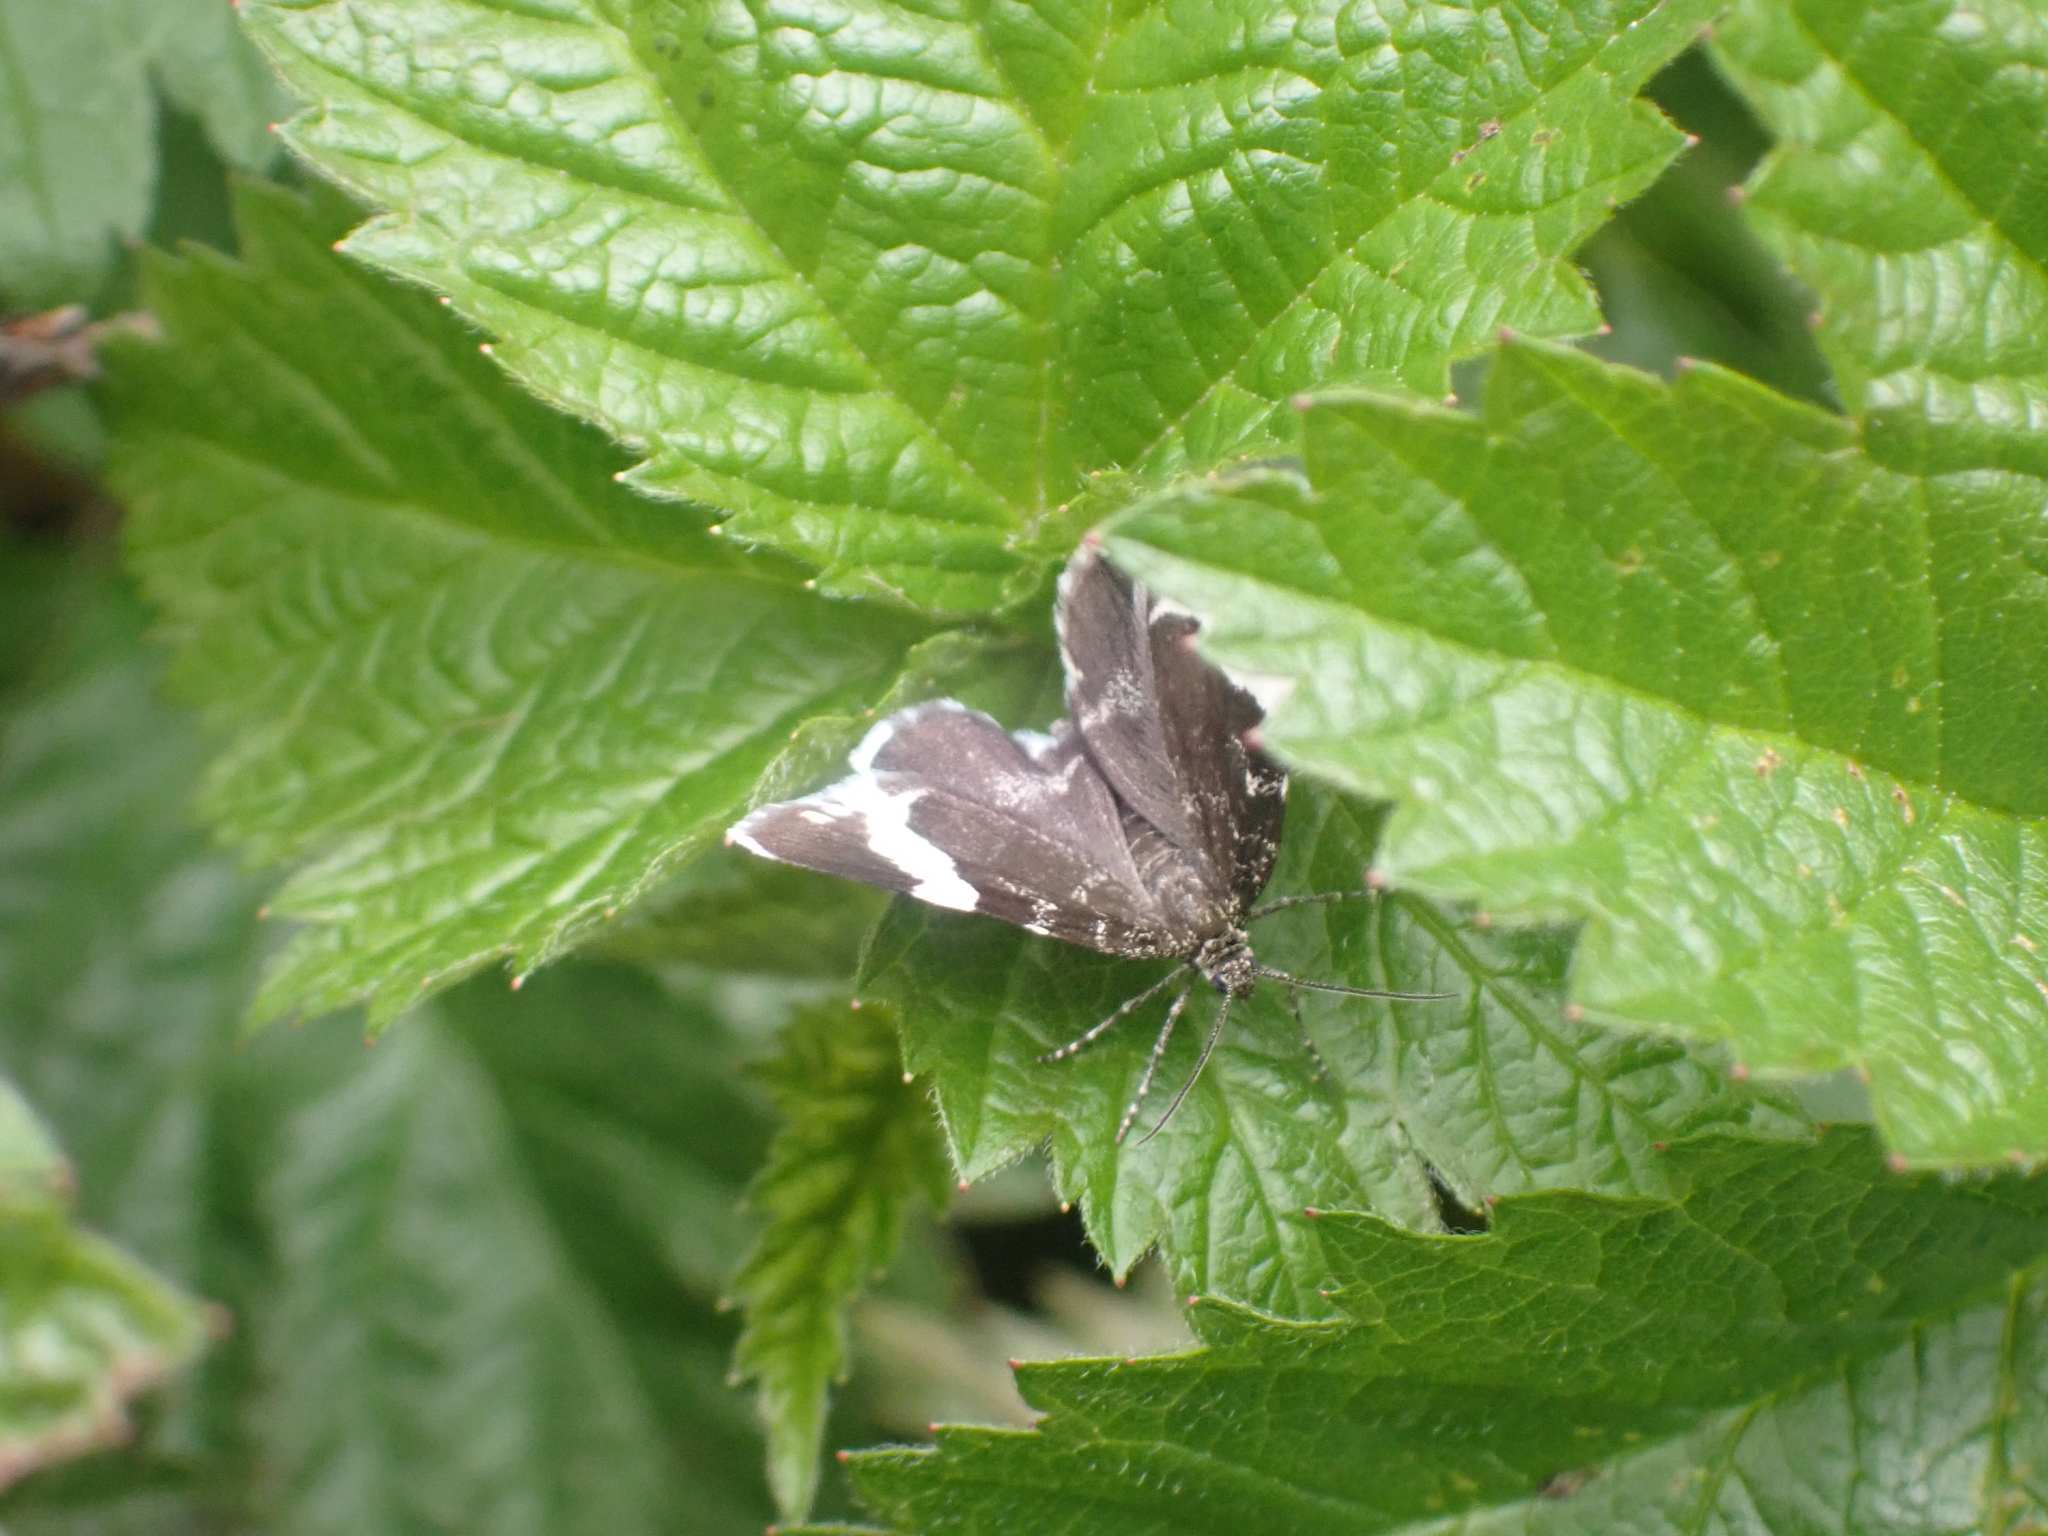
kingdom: Animalia
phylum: Arthropoda
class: Insecta
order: Lepidoptera
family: Geometridae
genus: Trichodezia
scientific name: Trichodezia albovittata
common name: White striped black
